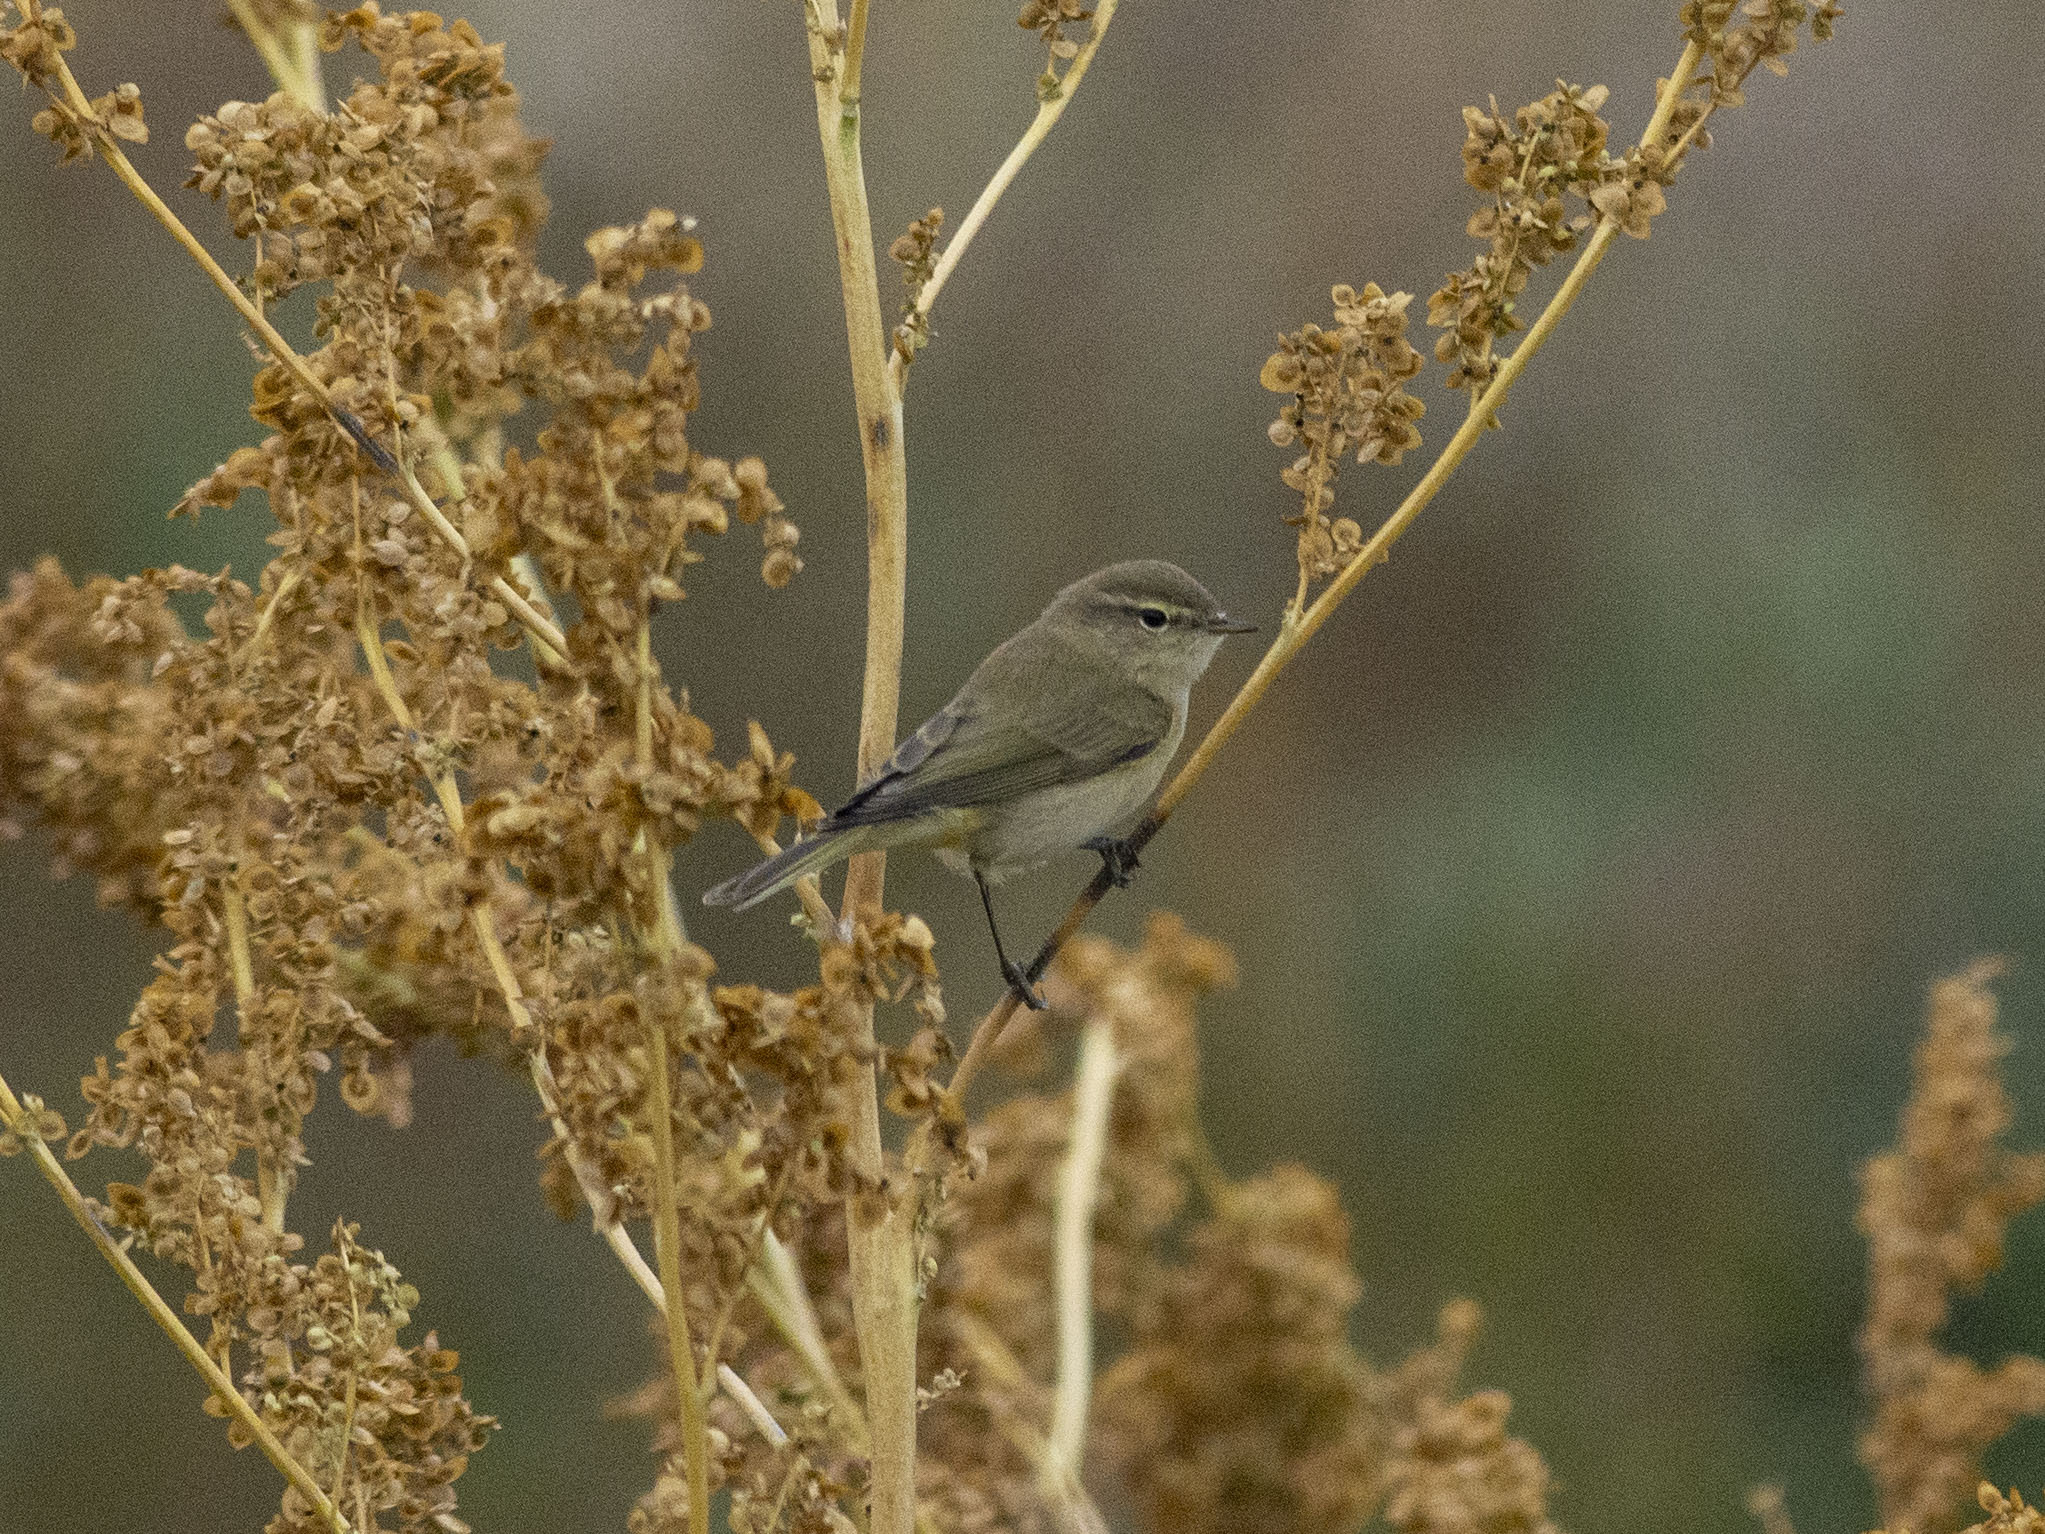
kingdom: Animalia
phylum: Chordata
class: Aves
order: Passeriformes
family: Phylloscopidae
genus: Phylloscopus
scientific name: Phylloscopus collybita
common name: Common chiffchaff
